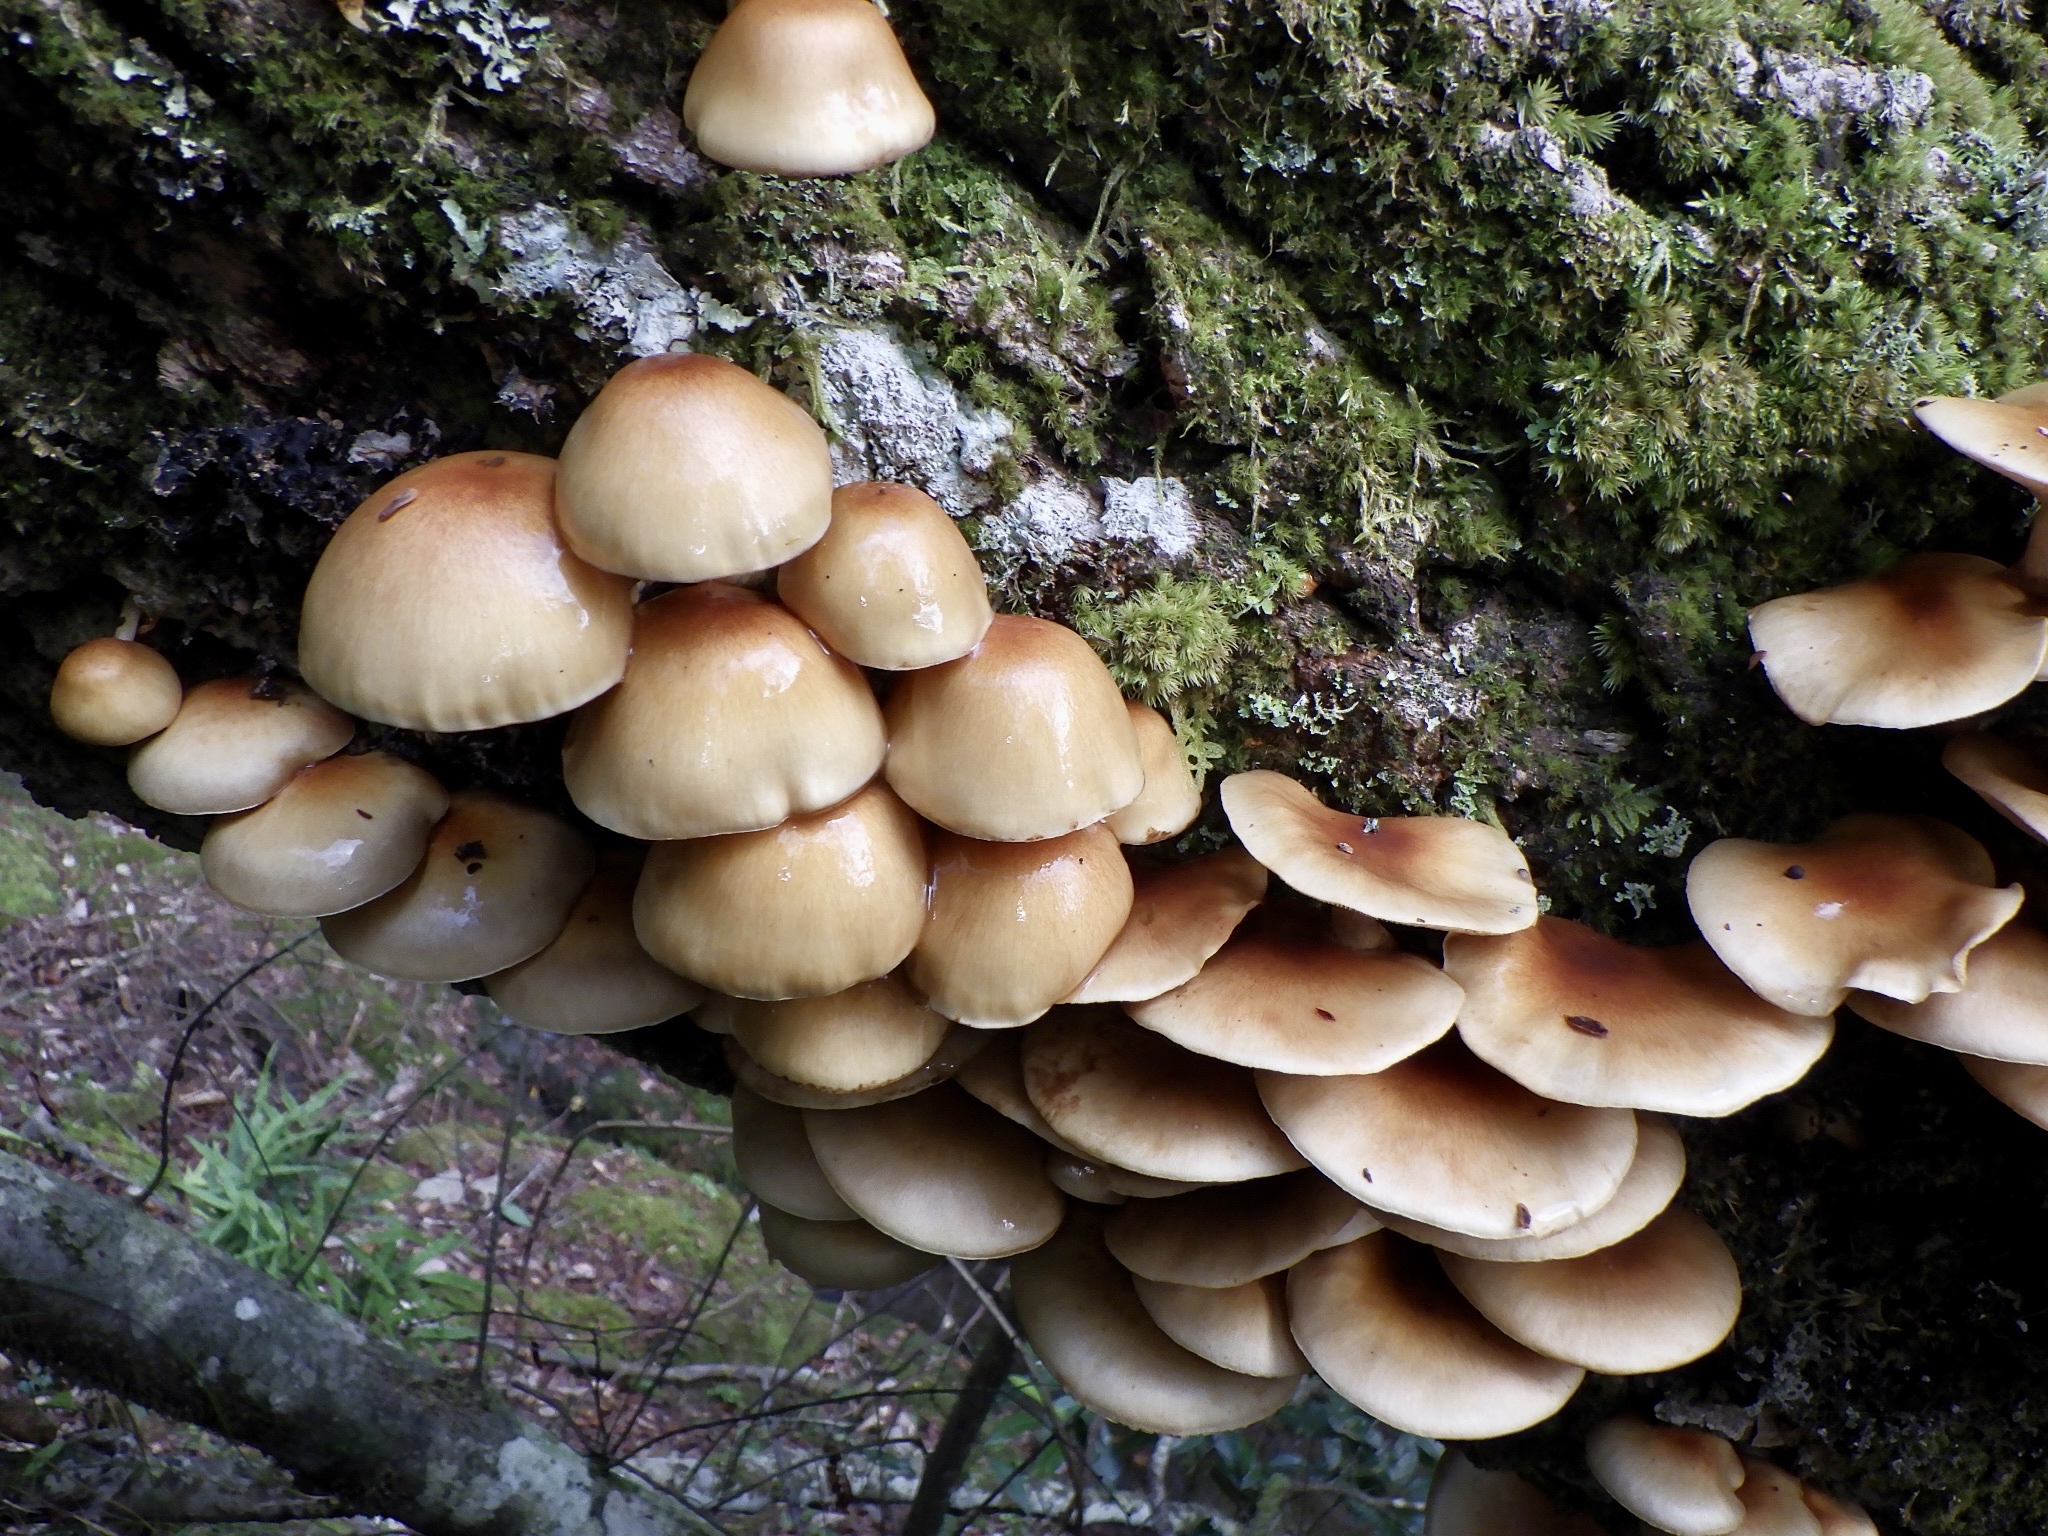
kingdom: Fungi
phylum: Basidiomycota
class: Agaricomycetes
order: Agaricales
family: Strophariaceae
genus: Pholiota
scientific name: Pholiota microspora
